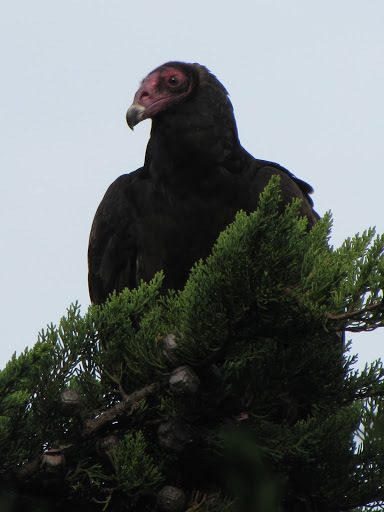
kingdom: Animalia
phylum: Chordata
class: Aves
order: Accipitriformes
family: Cathartidae
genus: Cathartes
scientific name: Cathartes aura
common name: Turkey vulture
